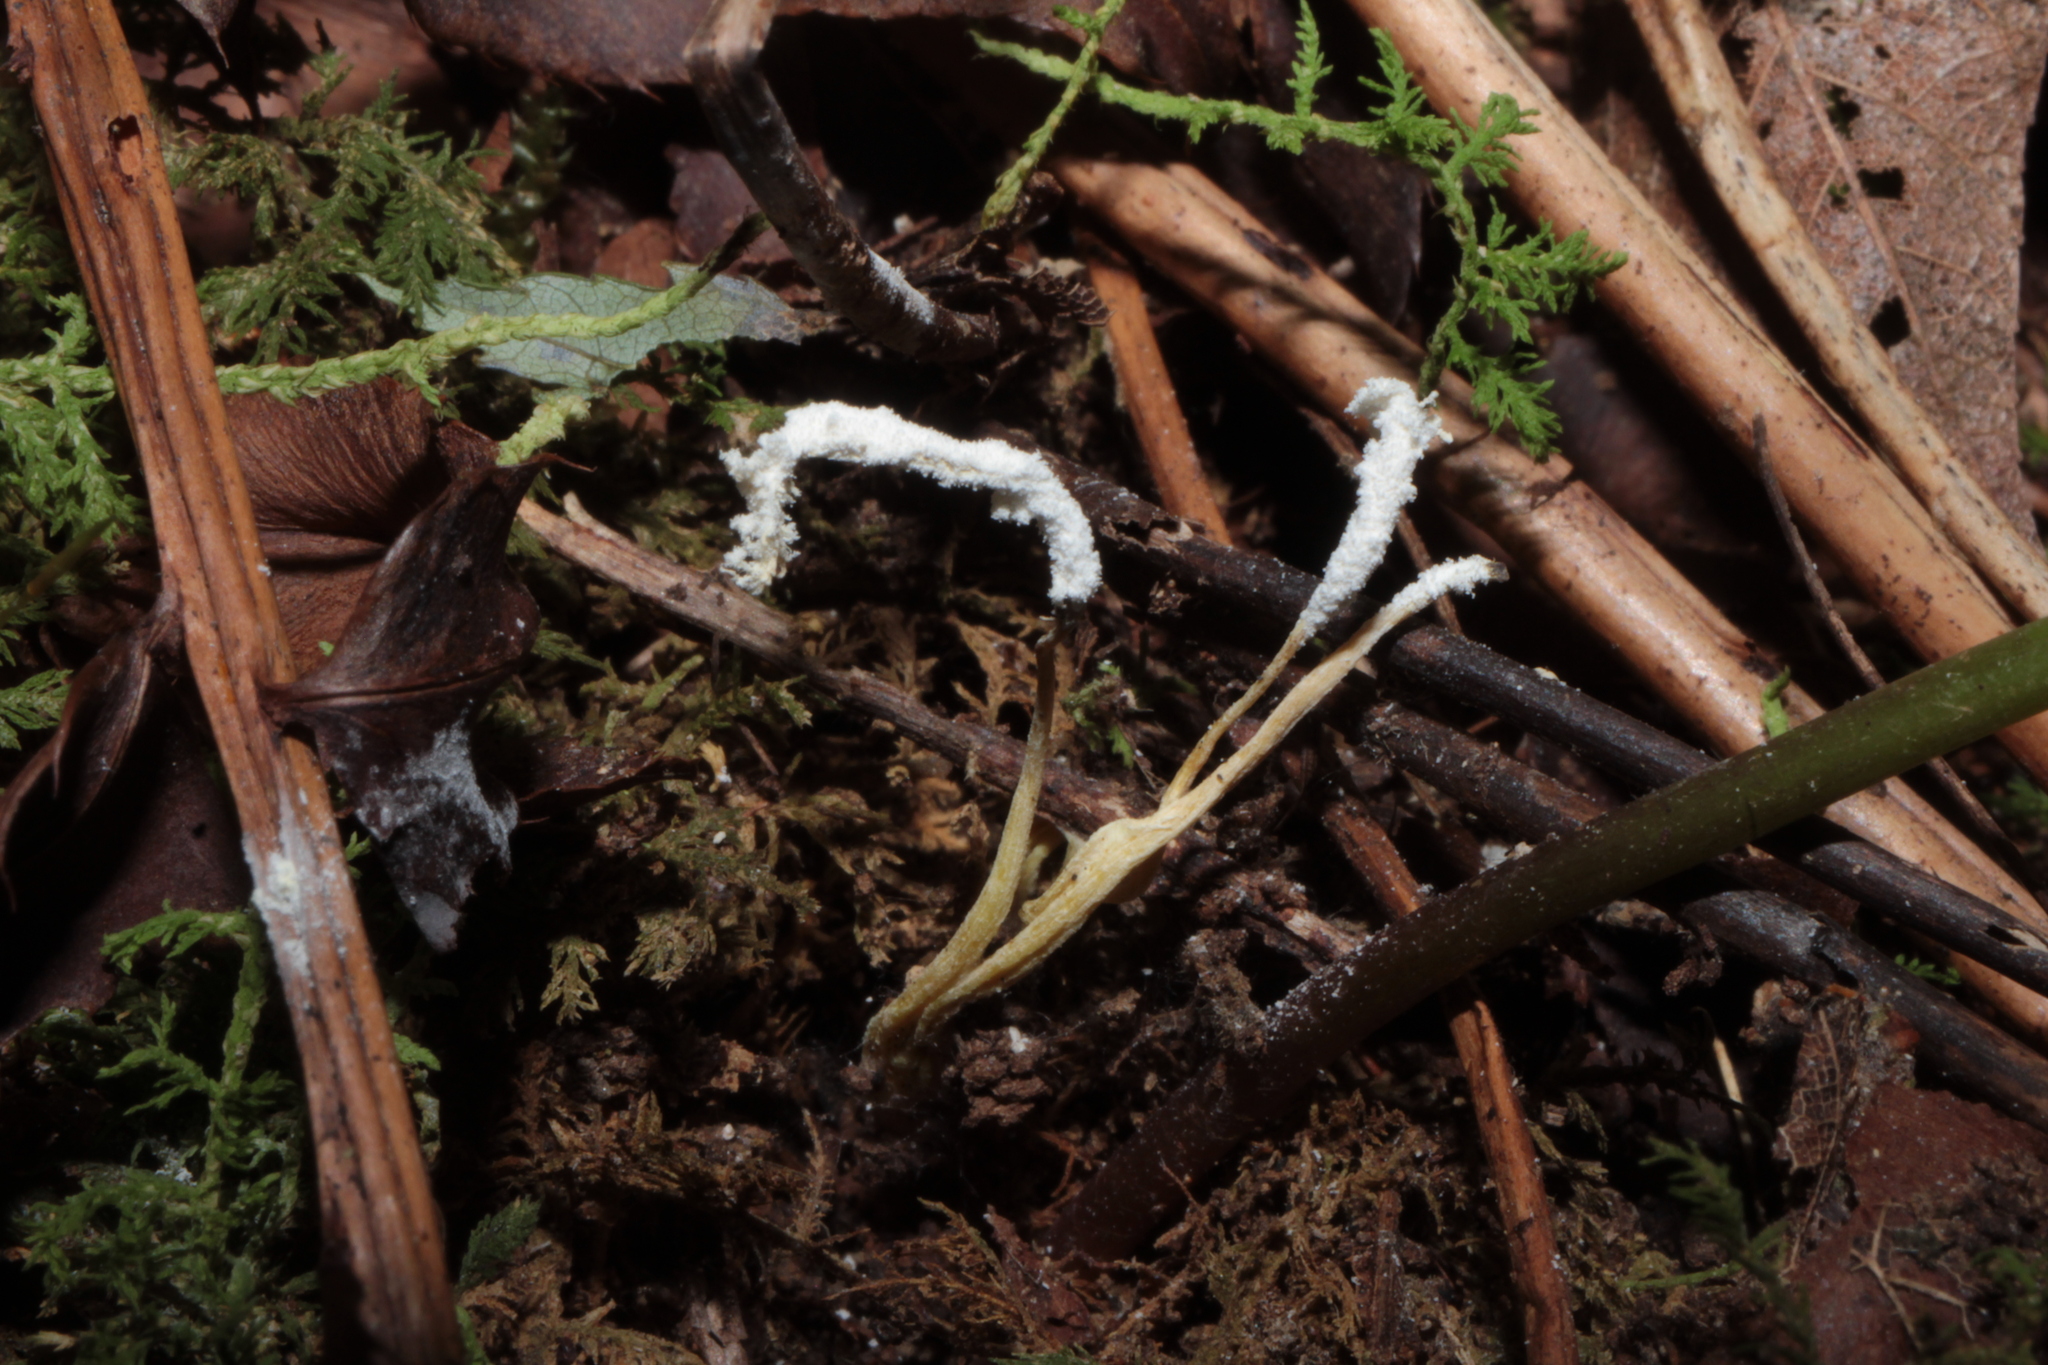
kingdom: Fungi
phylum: Ascomycota
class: Sordariomycetes
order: Hypocreales
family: Cordycipitaceae
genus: Cordyceps
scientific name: Cordyceps tenuipes
